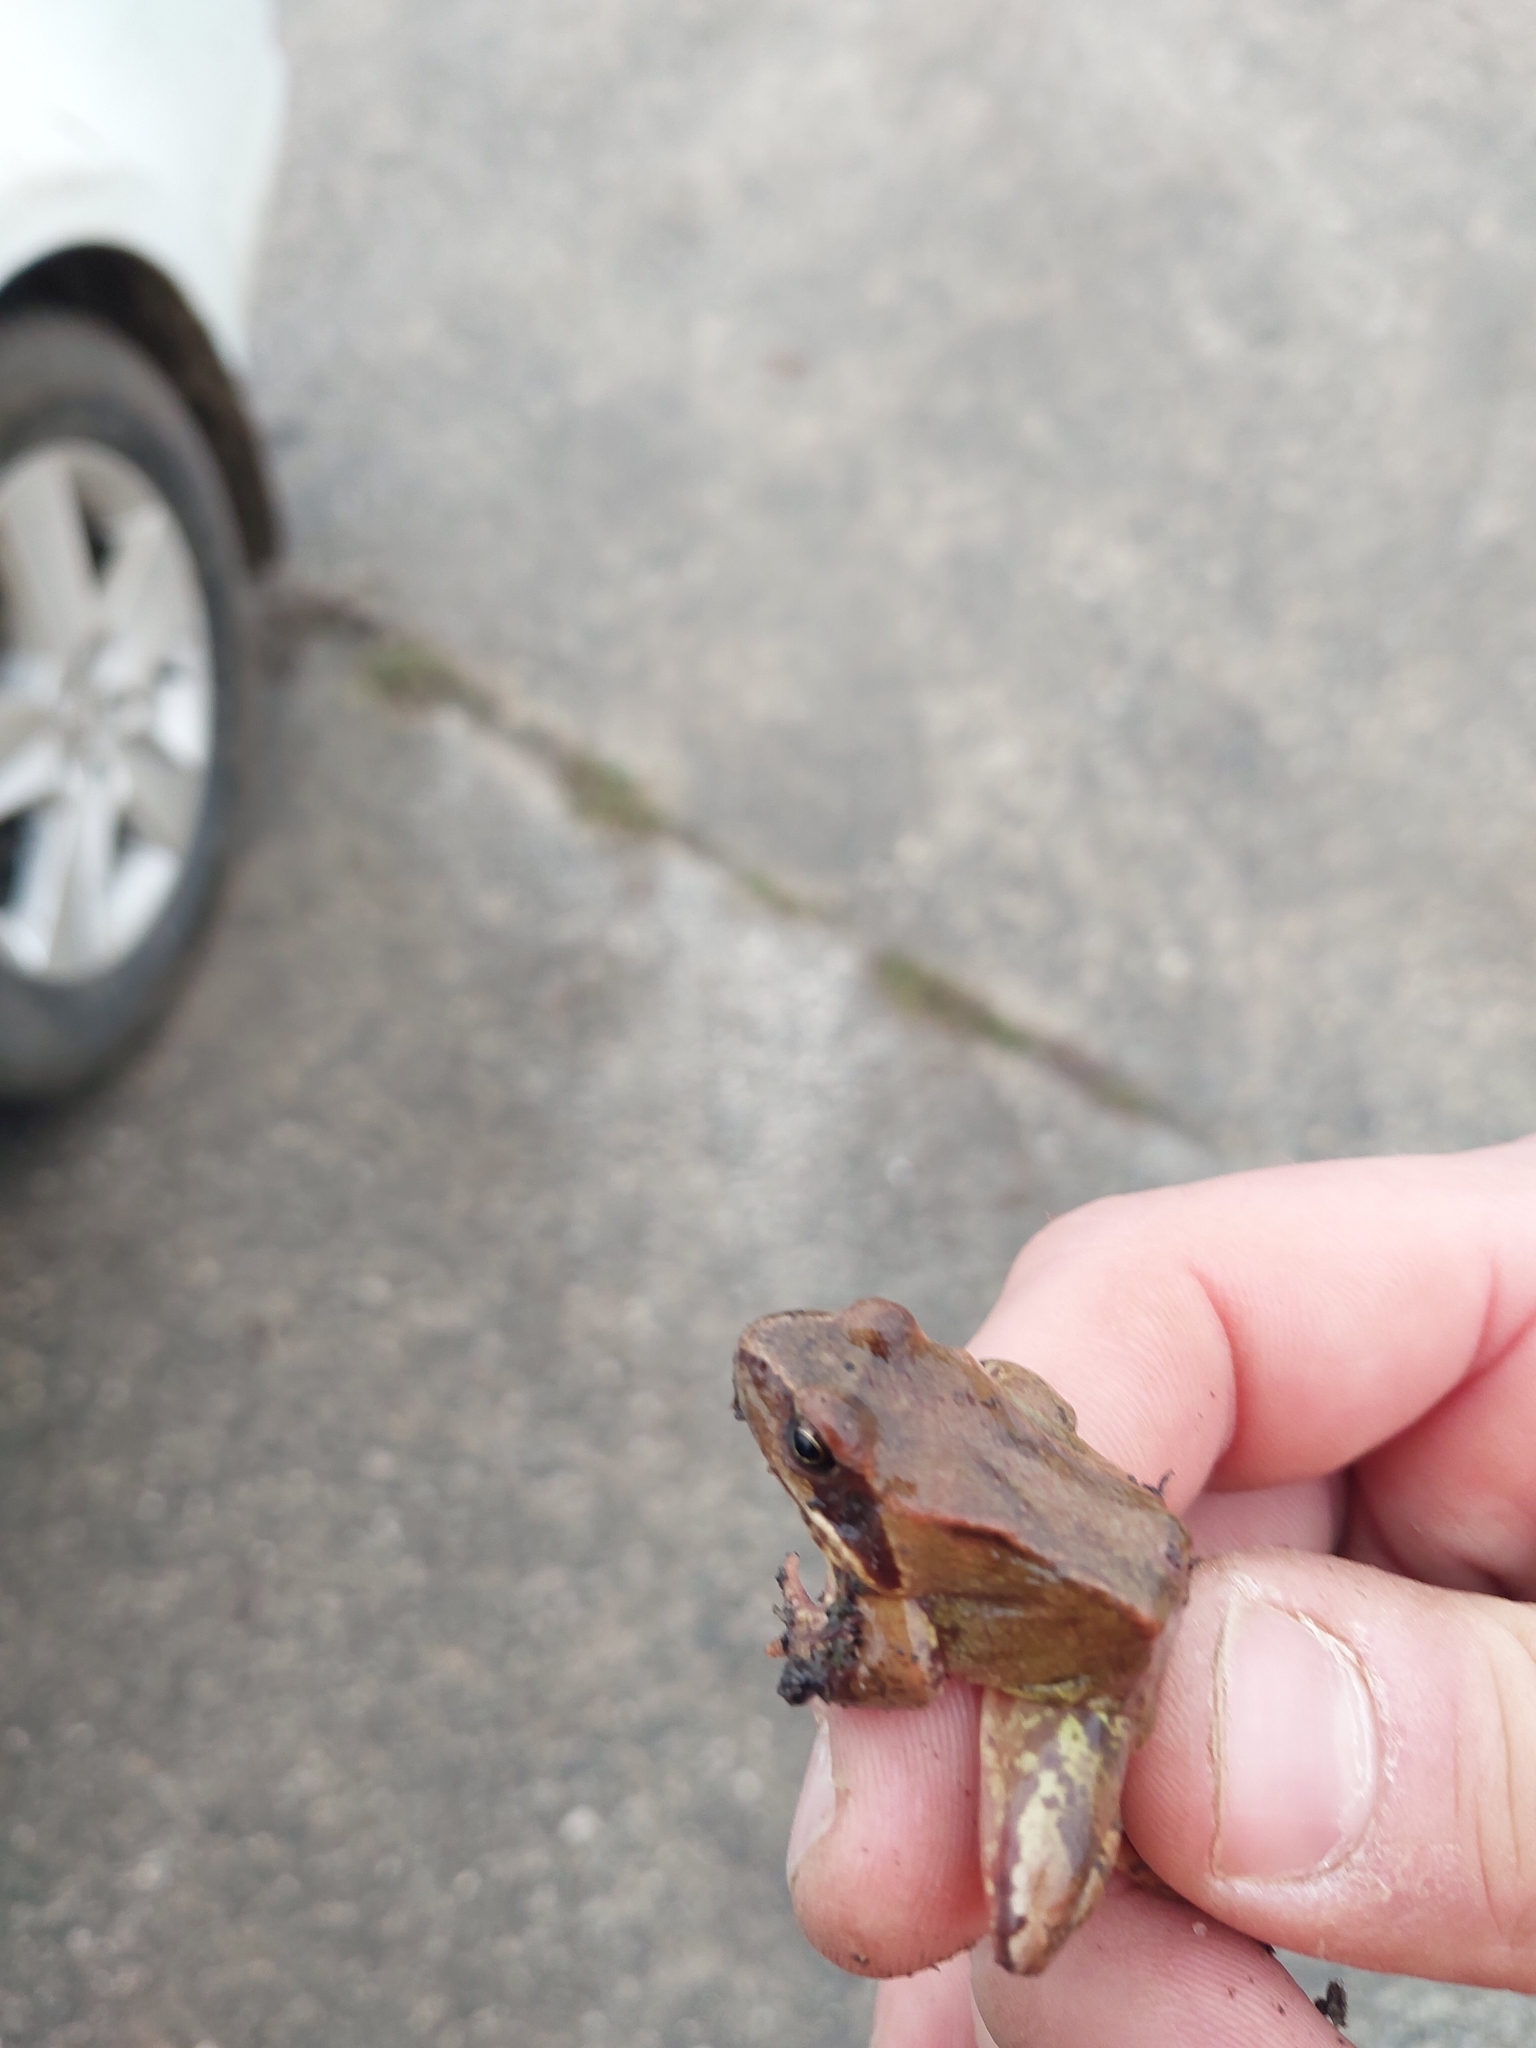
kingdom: Animalia
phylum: Chordata
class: Amphibia
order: Anura
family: Ranidae
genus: Rana
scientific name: Rana temporaria
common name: Common frog
